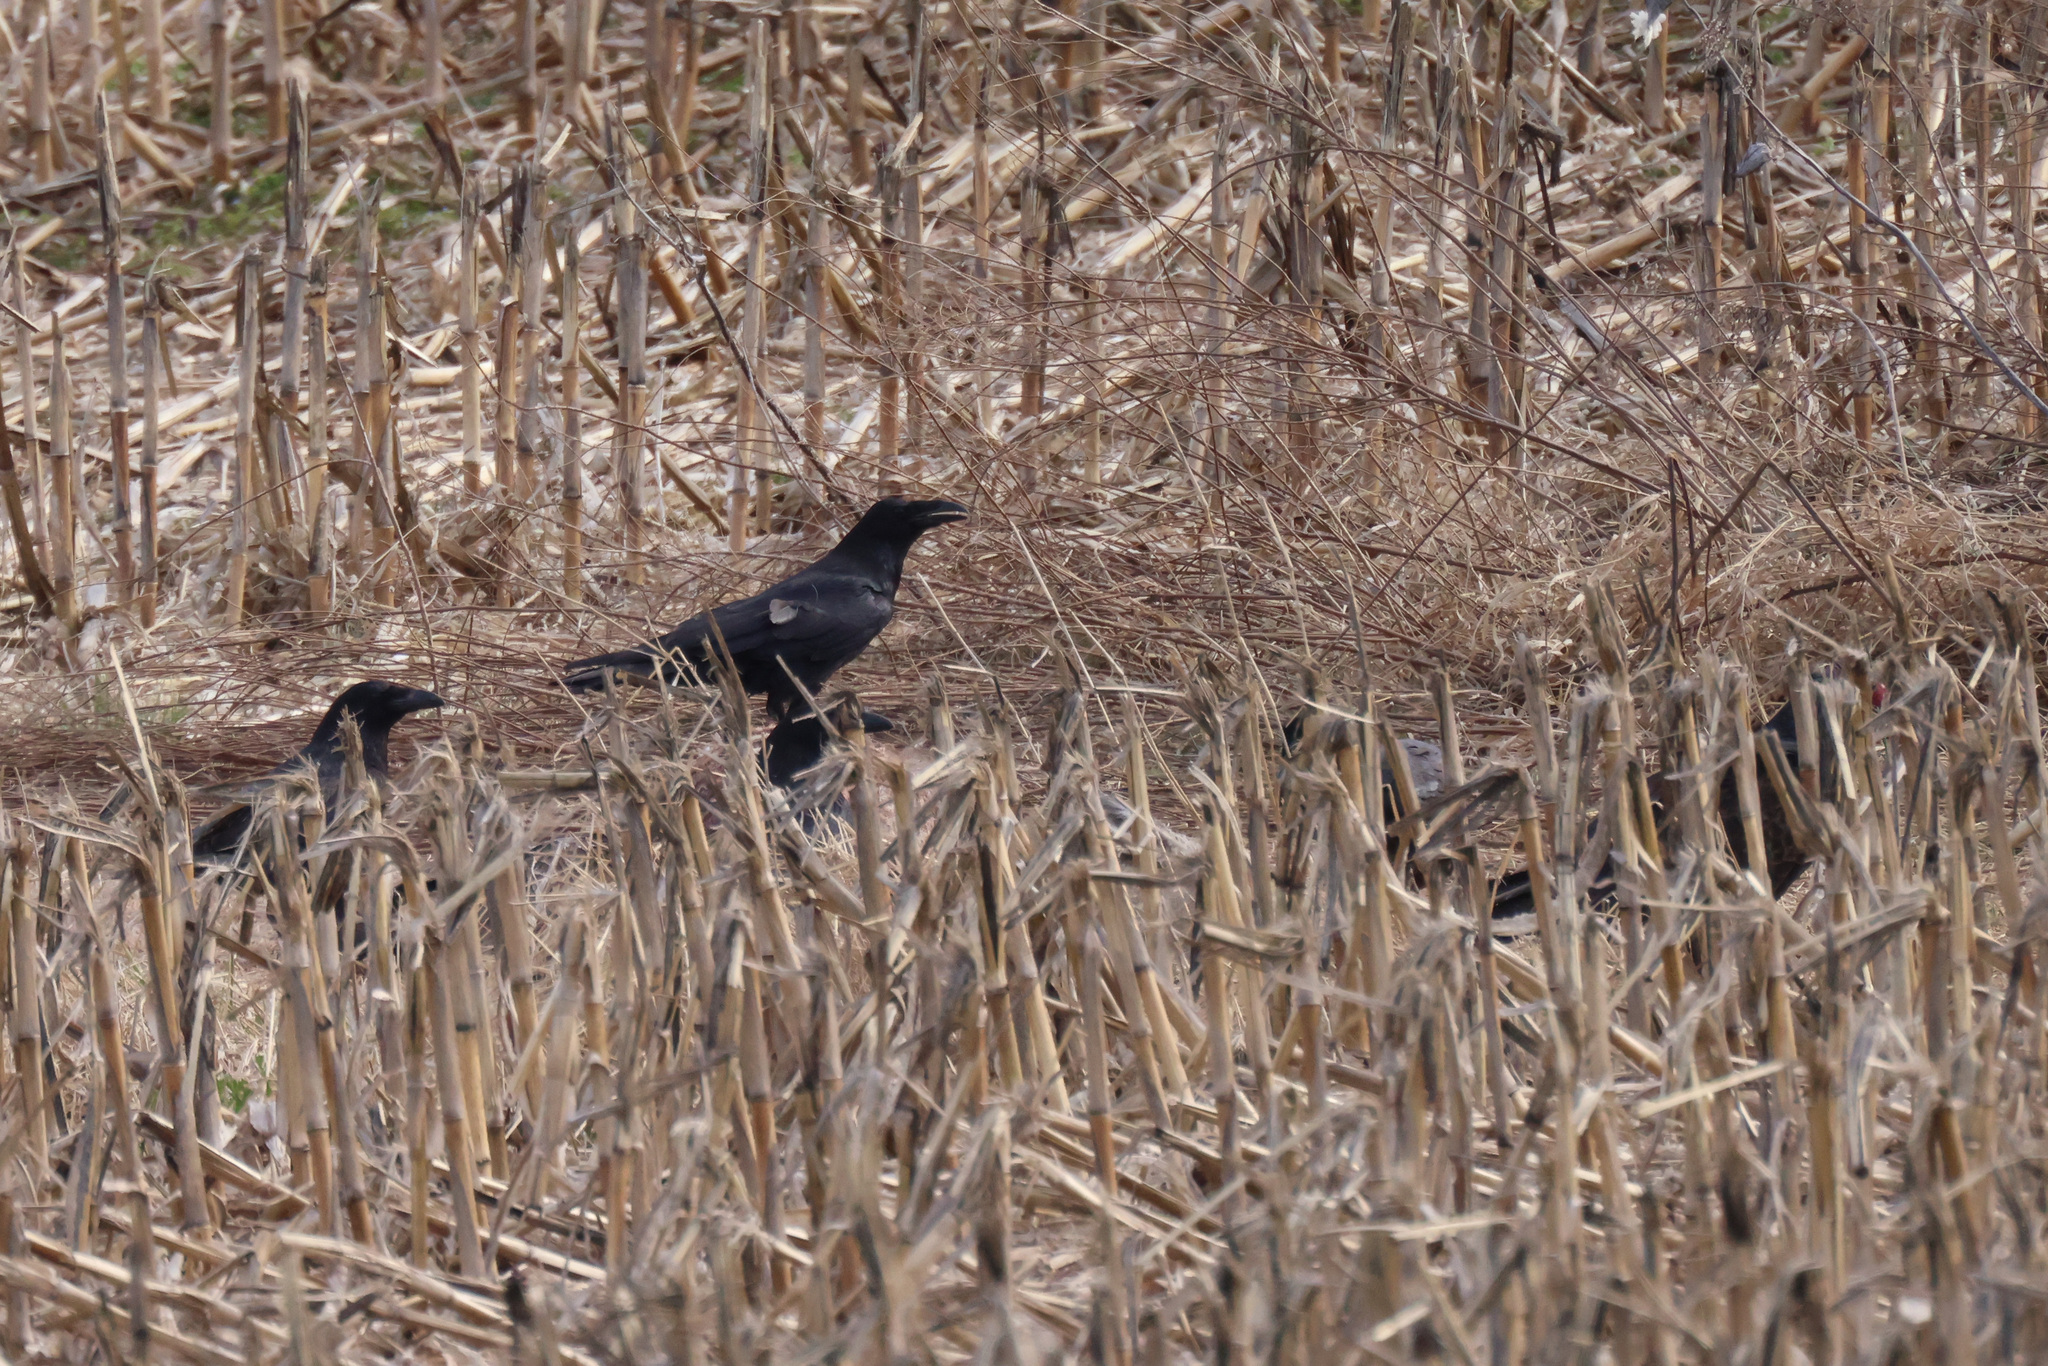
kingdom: Animalia
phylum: Chordata
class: Aves
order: Passeriformes
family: Corvidae
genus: Corvus
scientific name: Corvus corax
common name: Common raven
